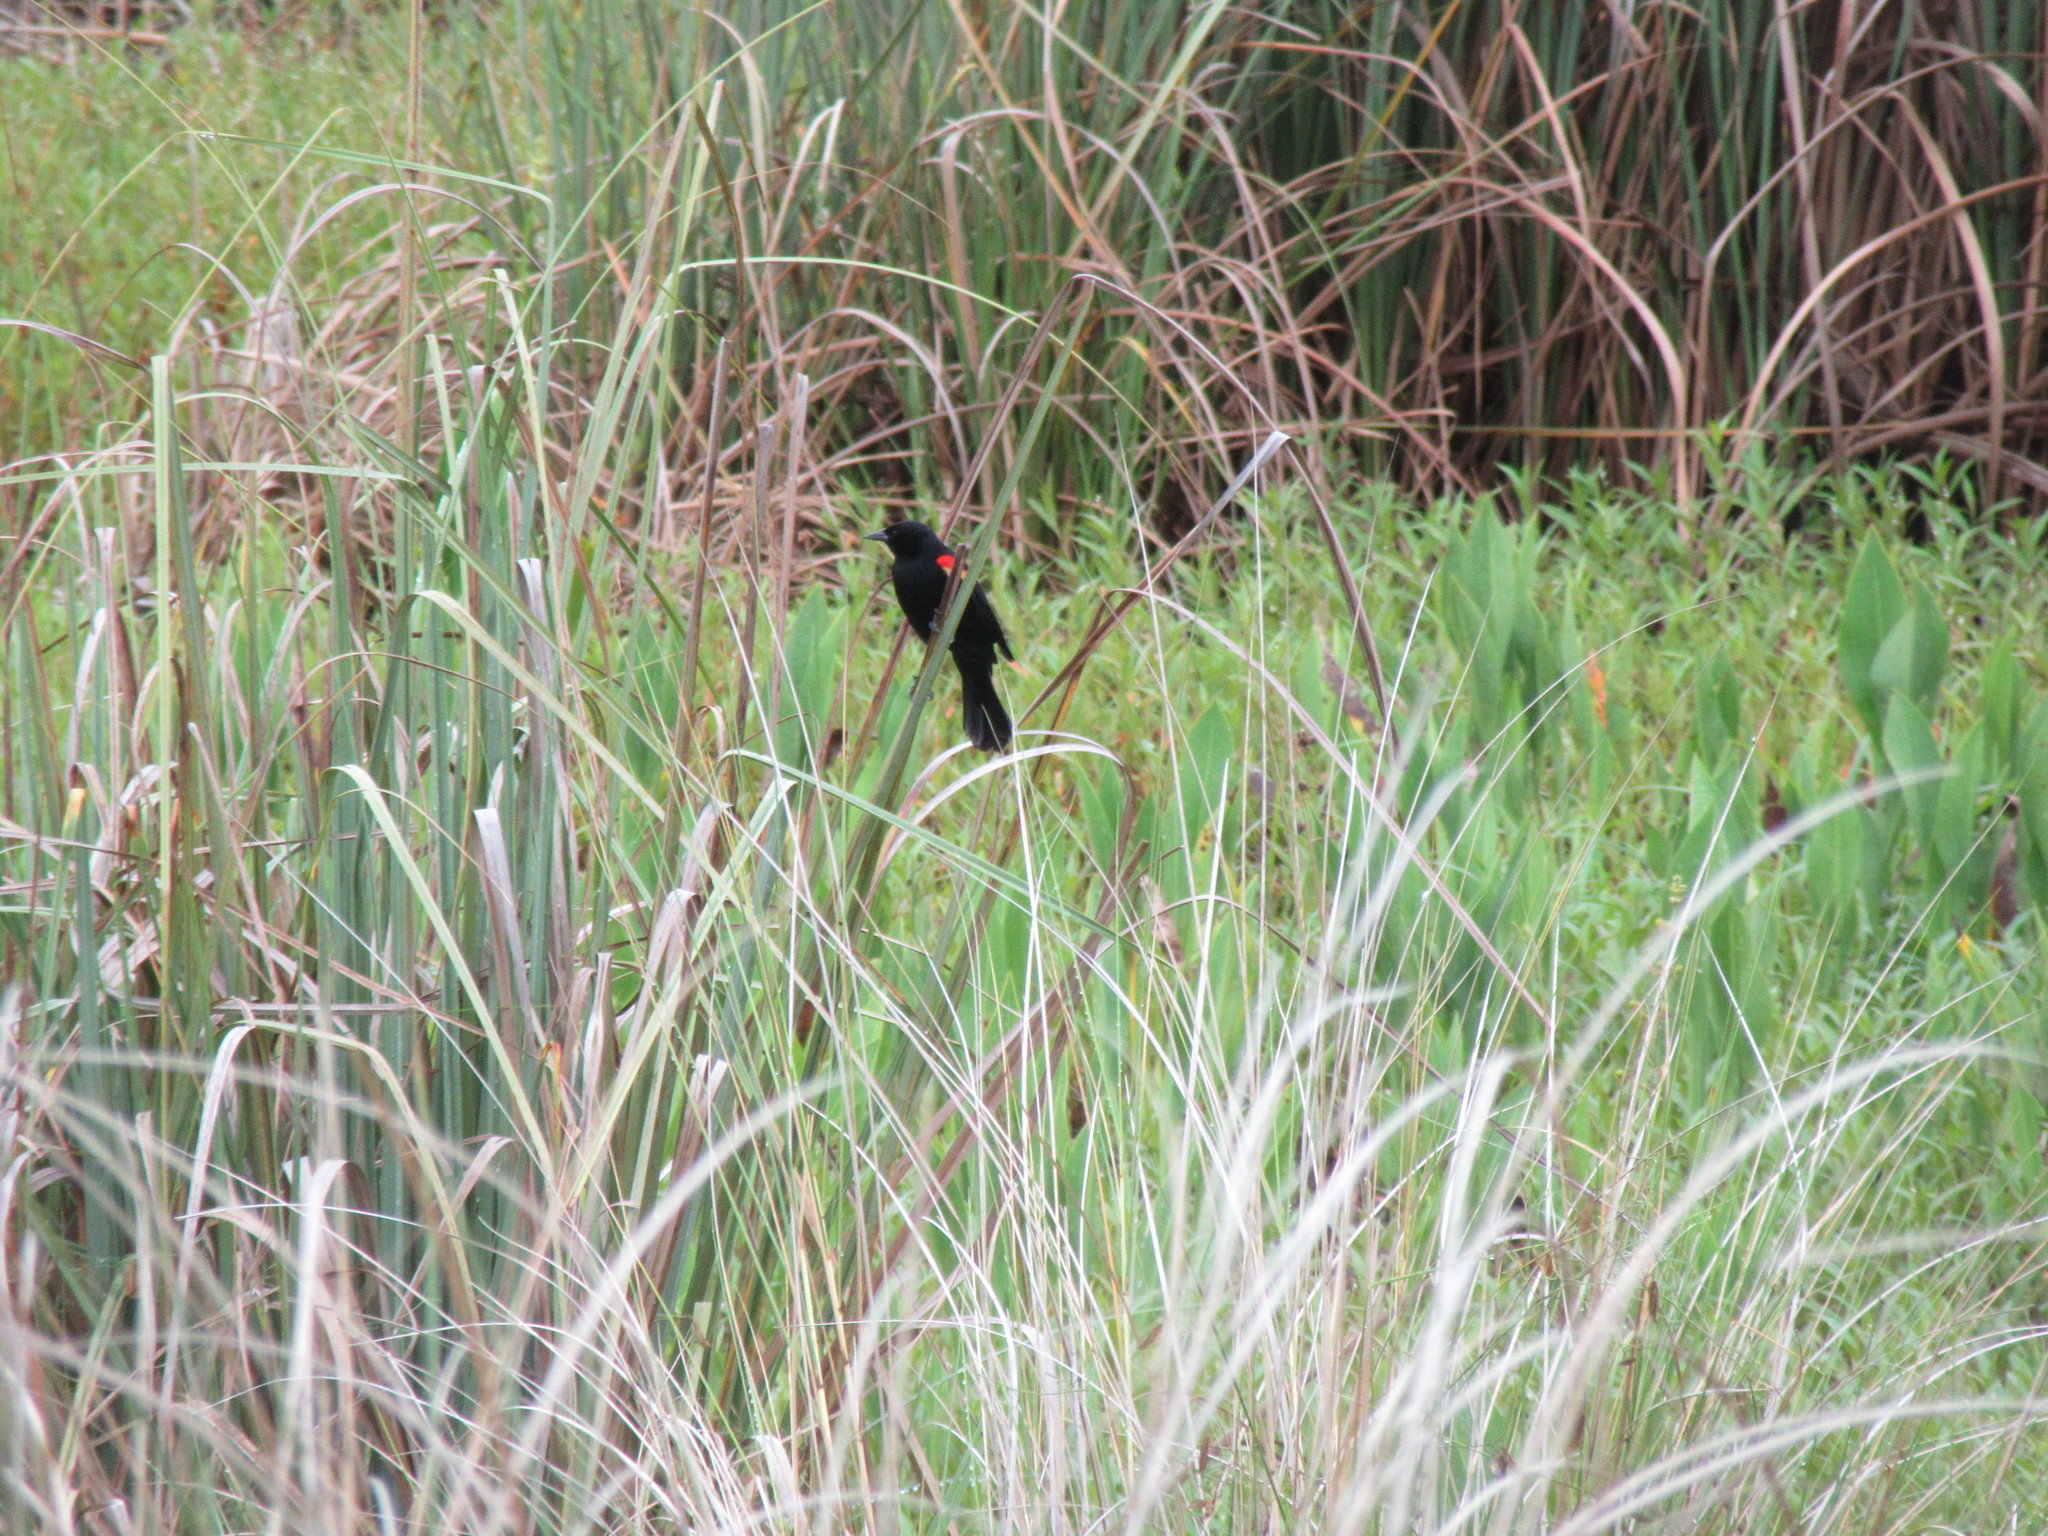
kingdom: Animalia
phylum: Chordata
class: Aves
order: Passeriformes
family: Icteridae
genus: Agelaius
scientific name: Agelaius phoeniceus
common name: Red-winged blackbird
